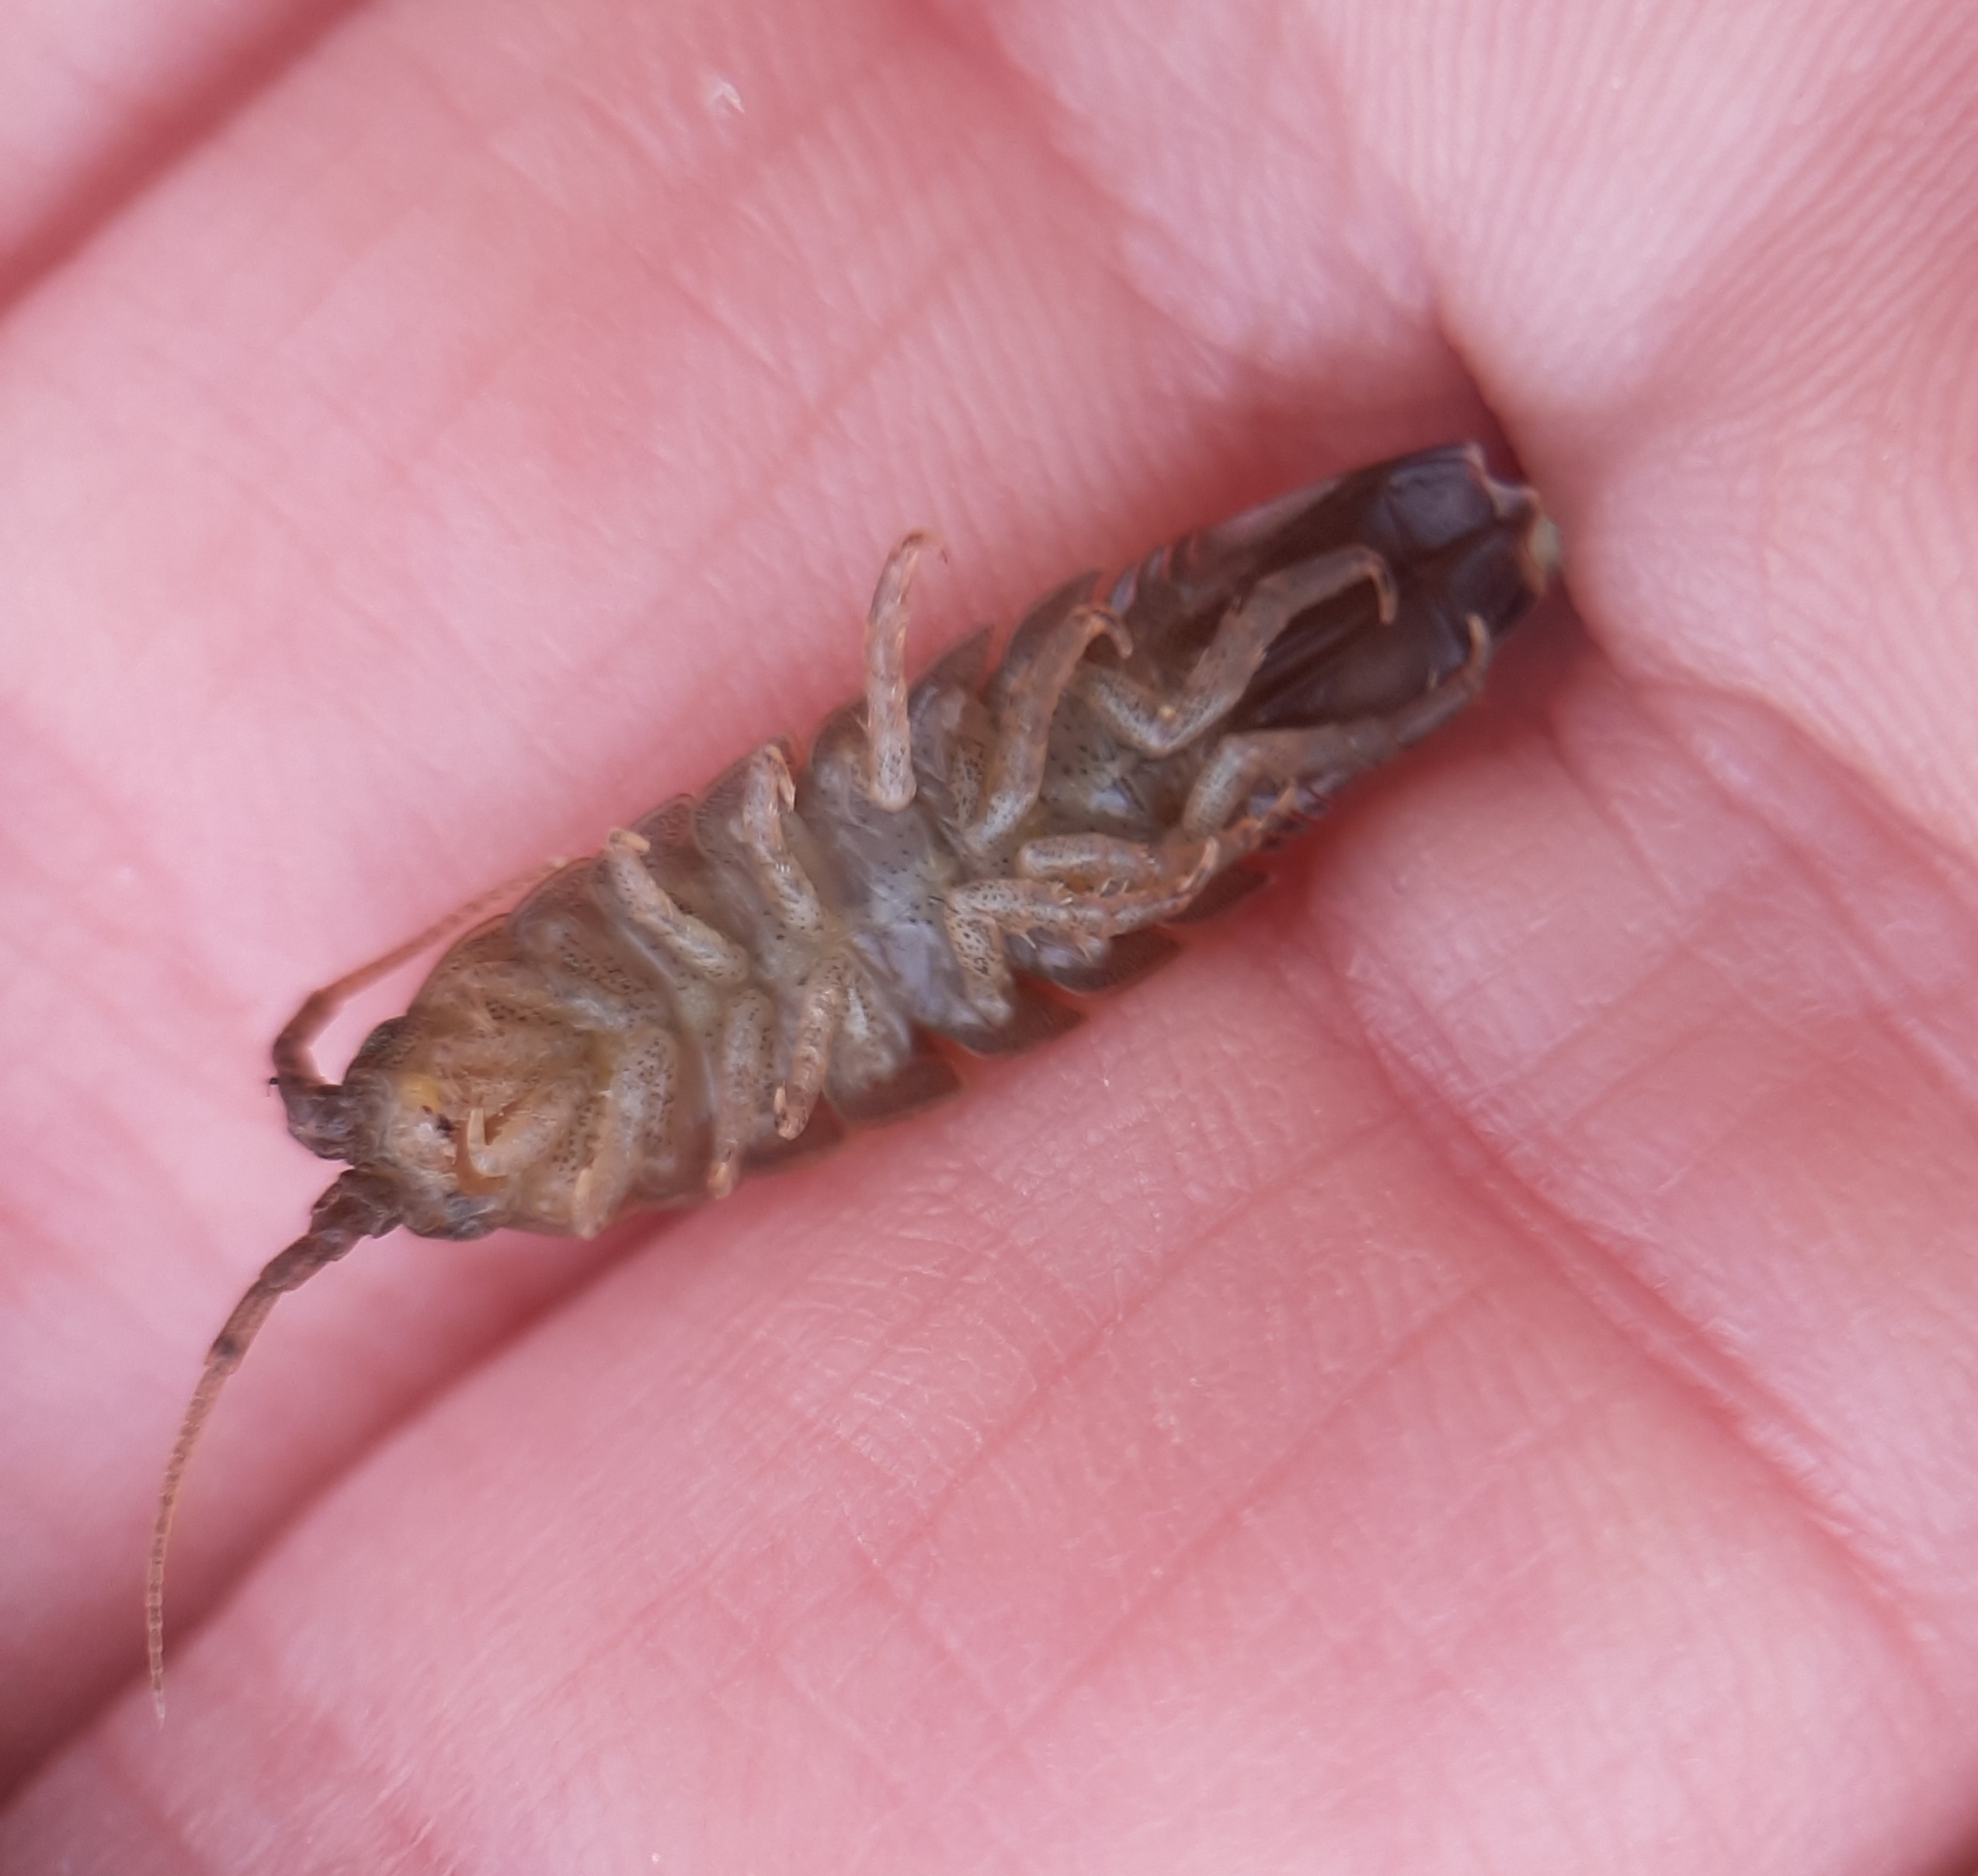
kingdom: Animalia
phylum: Arthropoda
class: Malacostraca
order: Isopoda
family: Idoteidae
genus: Idotea
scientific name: Idotea balthica
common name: Baltic isopod
